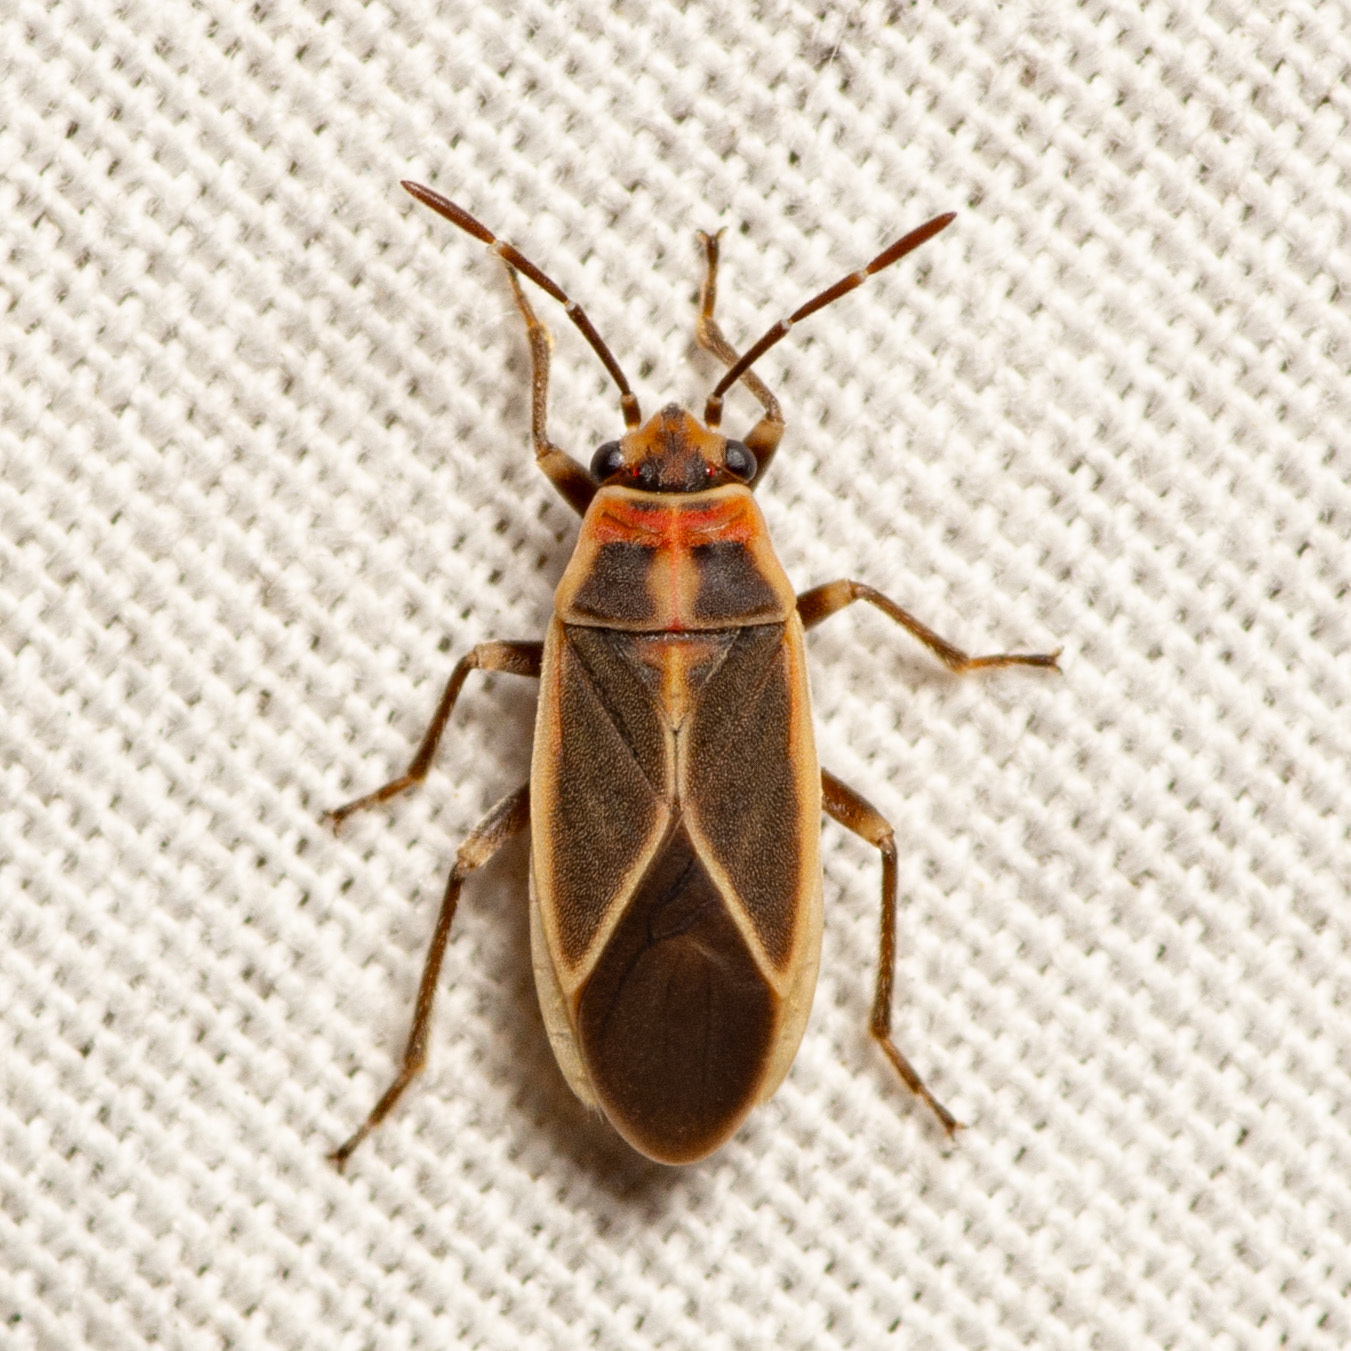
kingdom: Animalia
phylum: Arthropoda
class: Insecta
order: Hemiptera
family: Lygaeidae
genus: Ochrimnus
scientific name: Ochrimnus mimulus
